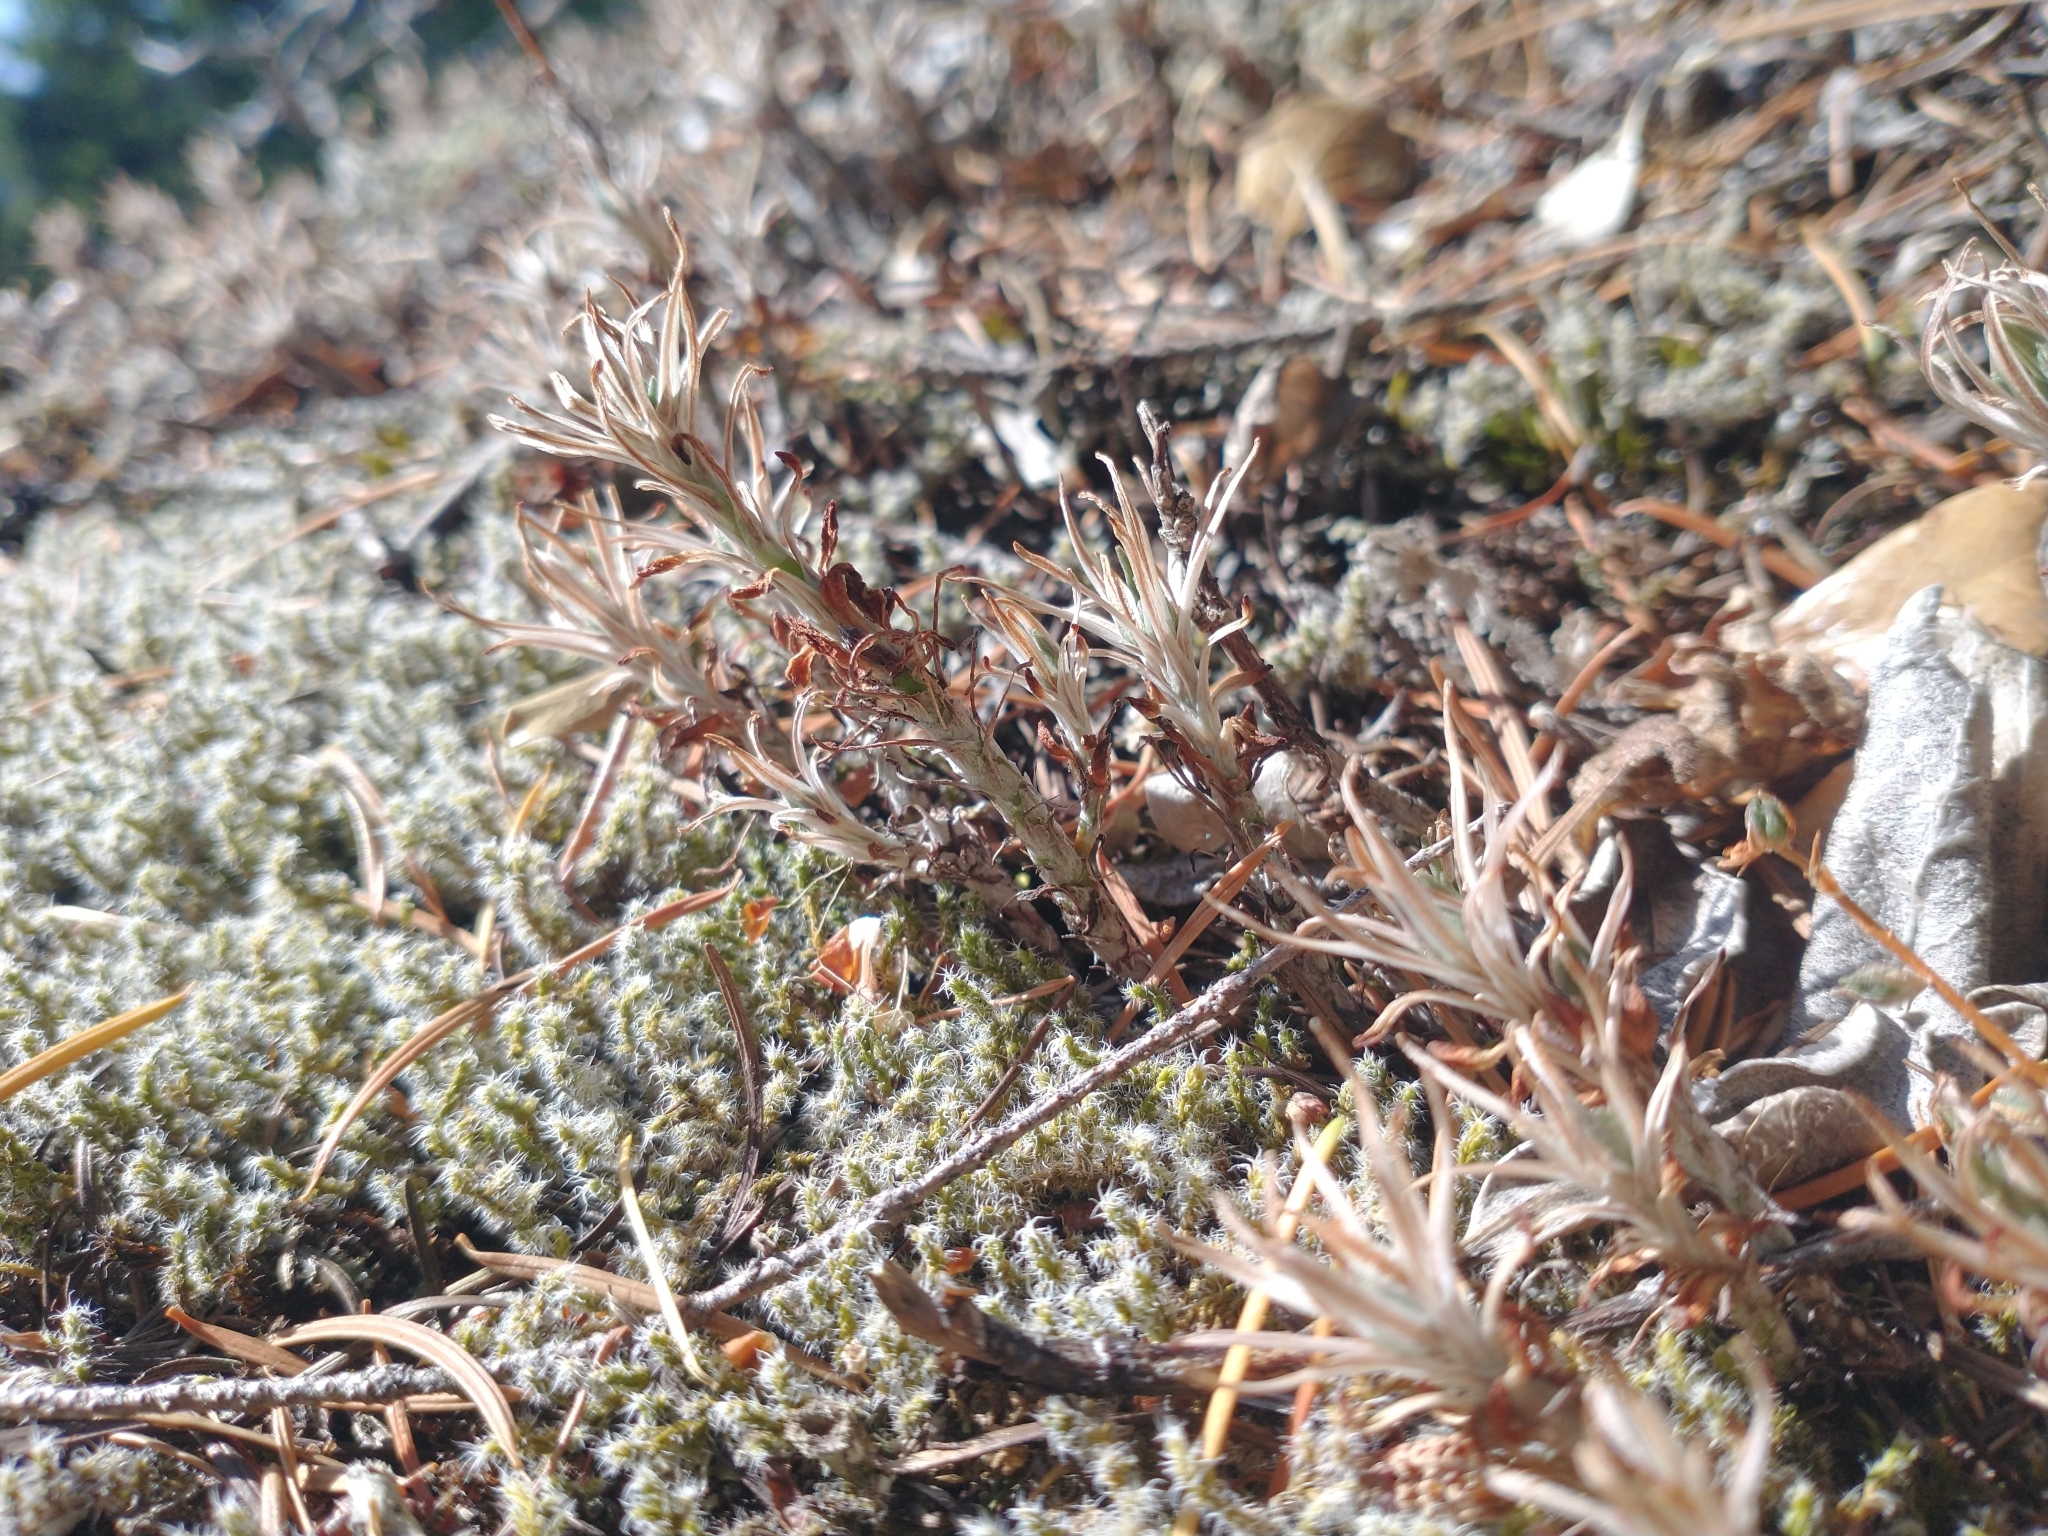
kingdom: Plantae
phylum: Tracheophyta
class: Magnoliopsida
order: Saxifragales
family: Crassulaceae
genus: Sedum
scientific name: Sedum stenopetalum
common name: Narrow-petaled stonecrop
